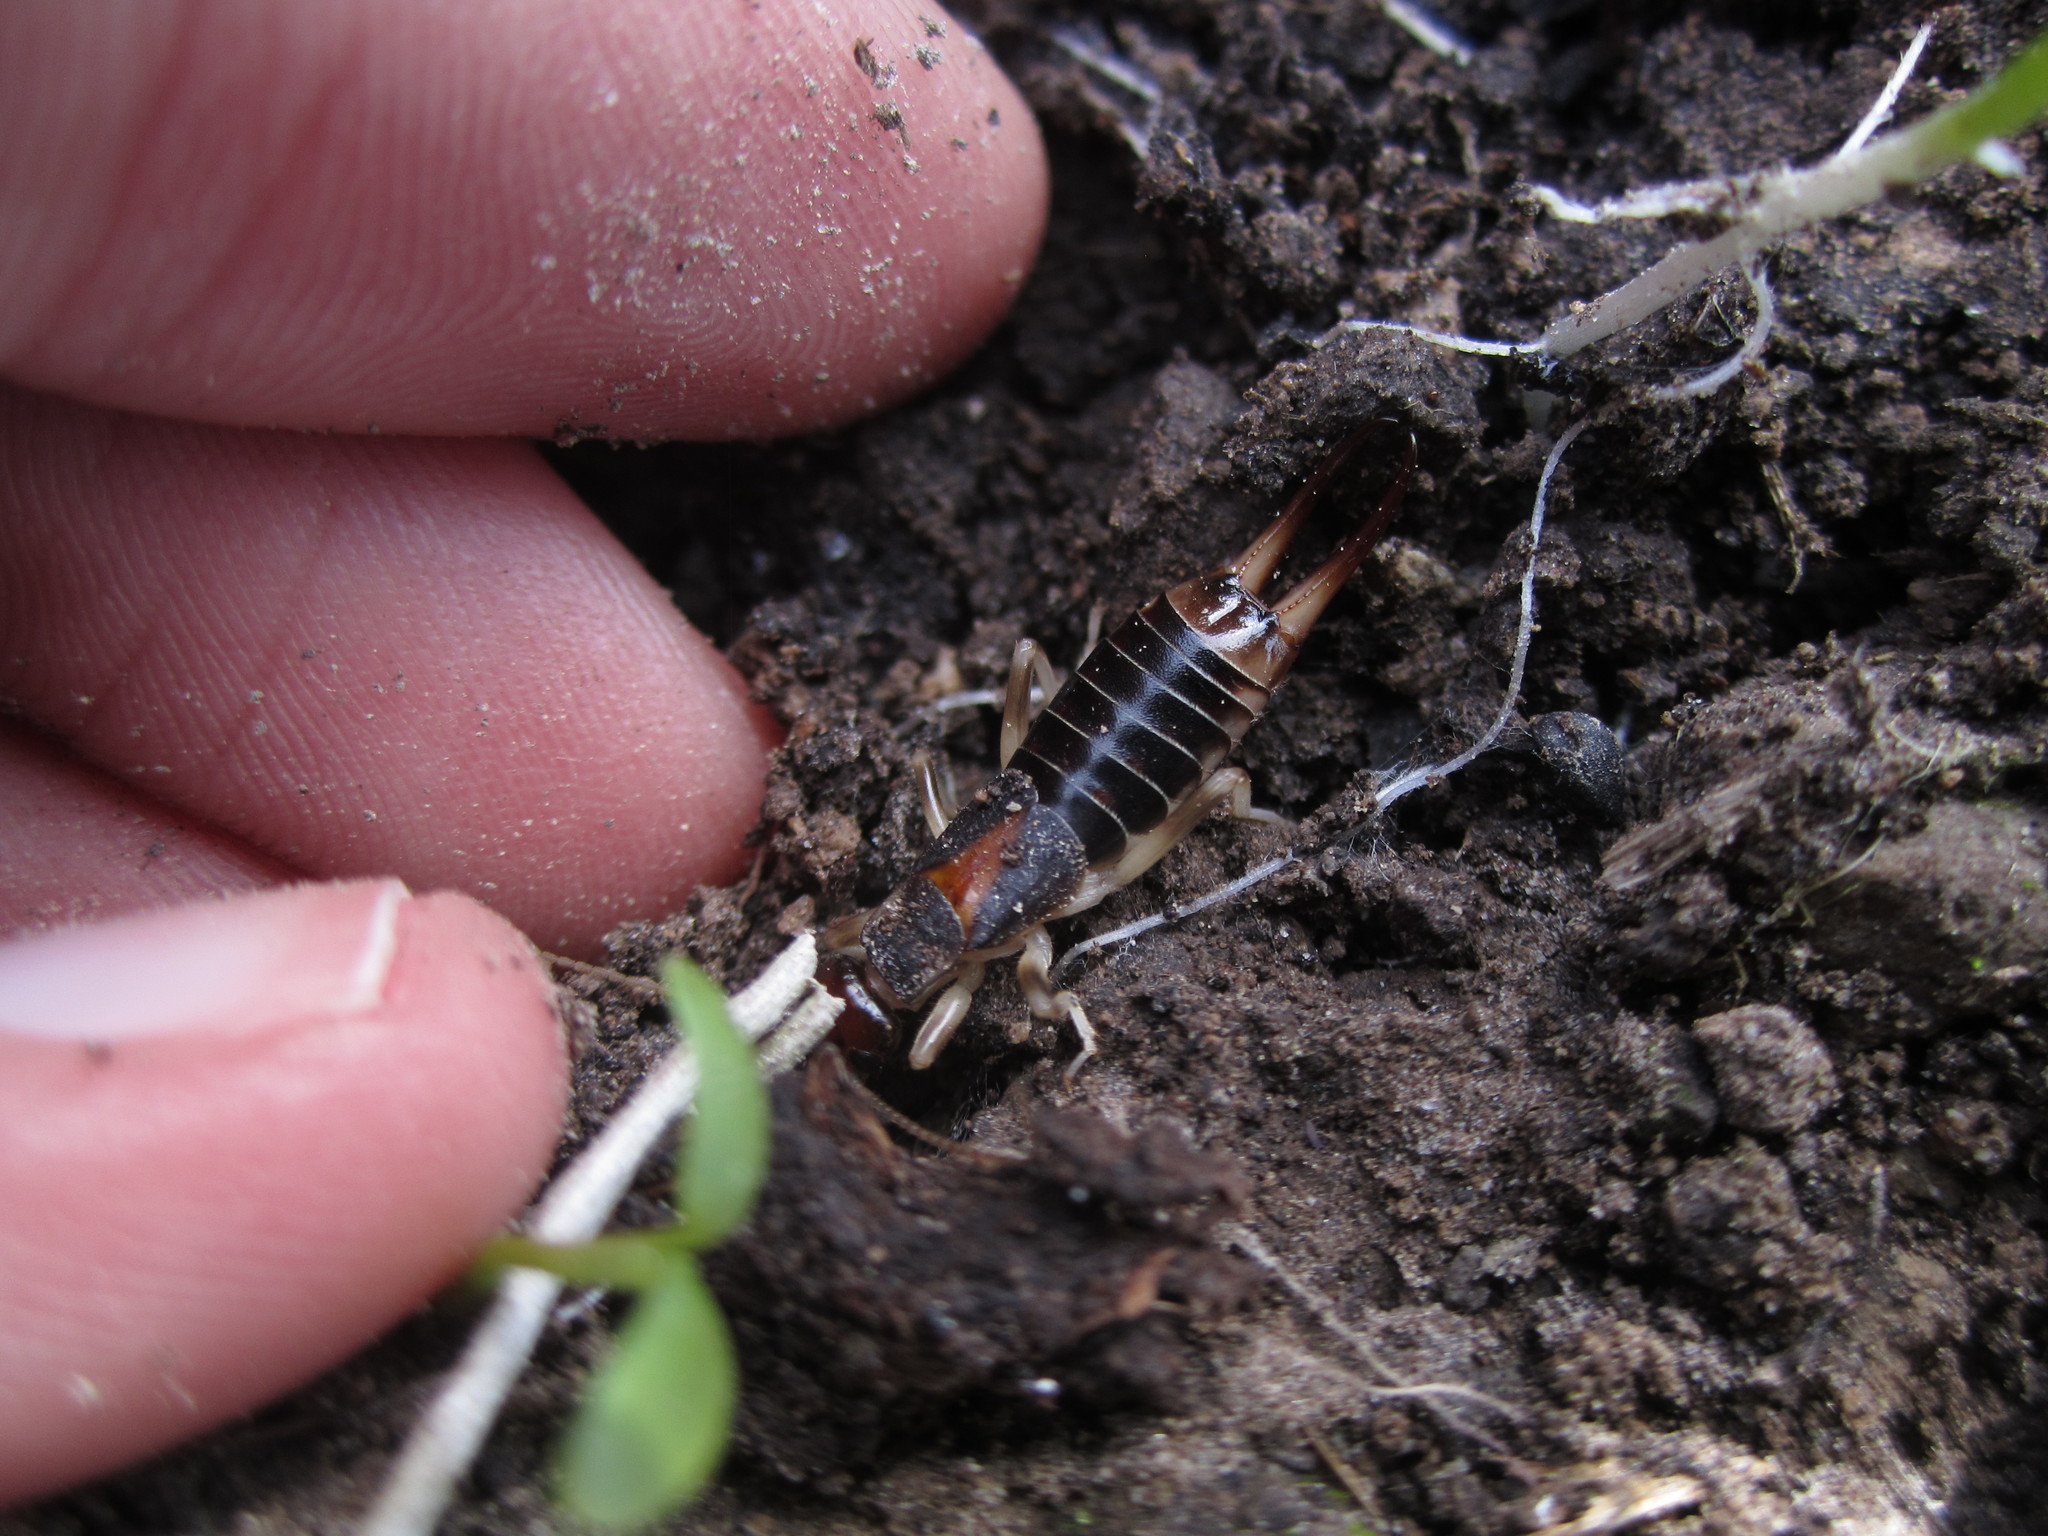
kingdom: Animalia
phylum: Arthropoda
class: Insecta
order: Dermaptera
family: Labiduridae
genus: Labidura
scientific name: Labidura riparia
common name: Striped earwig
